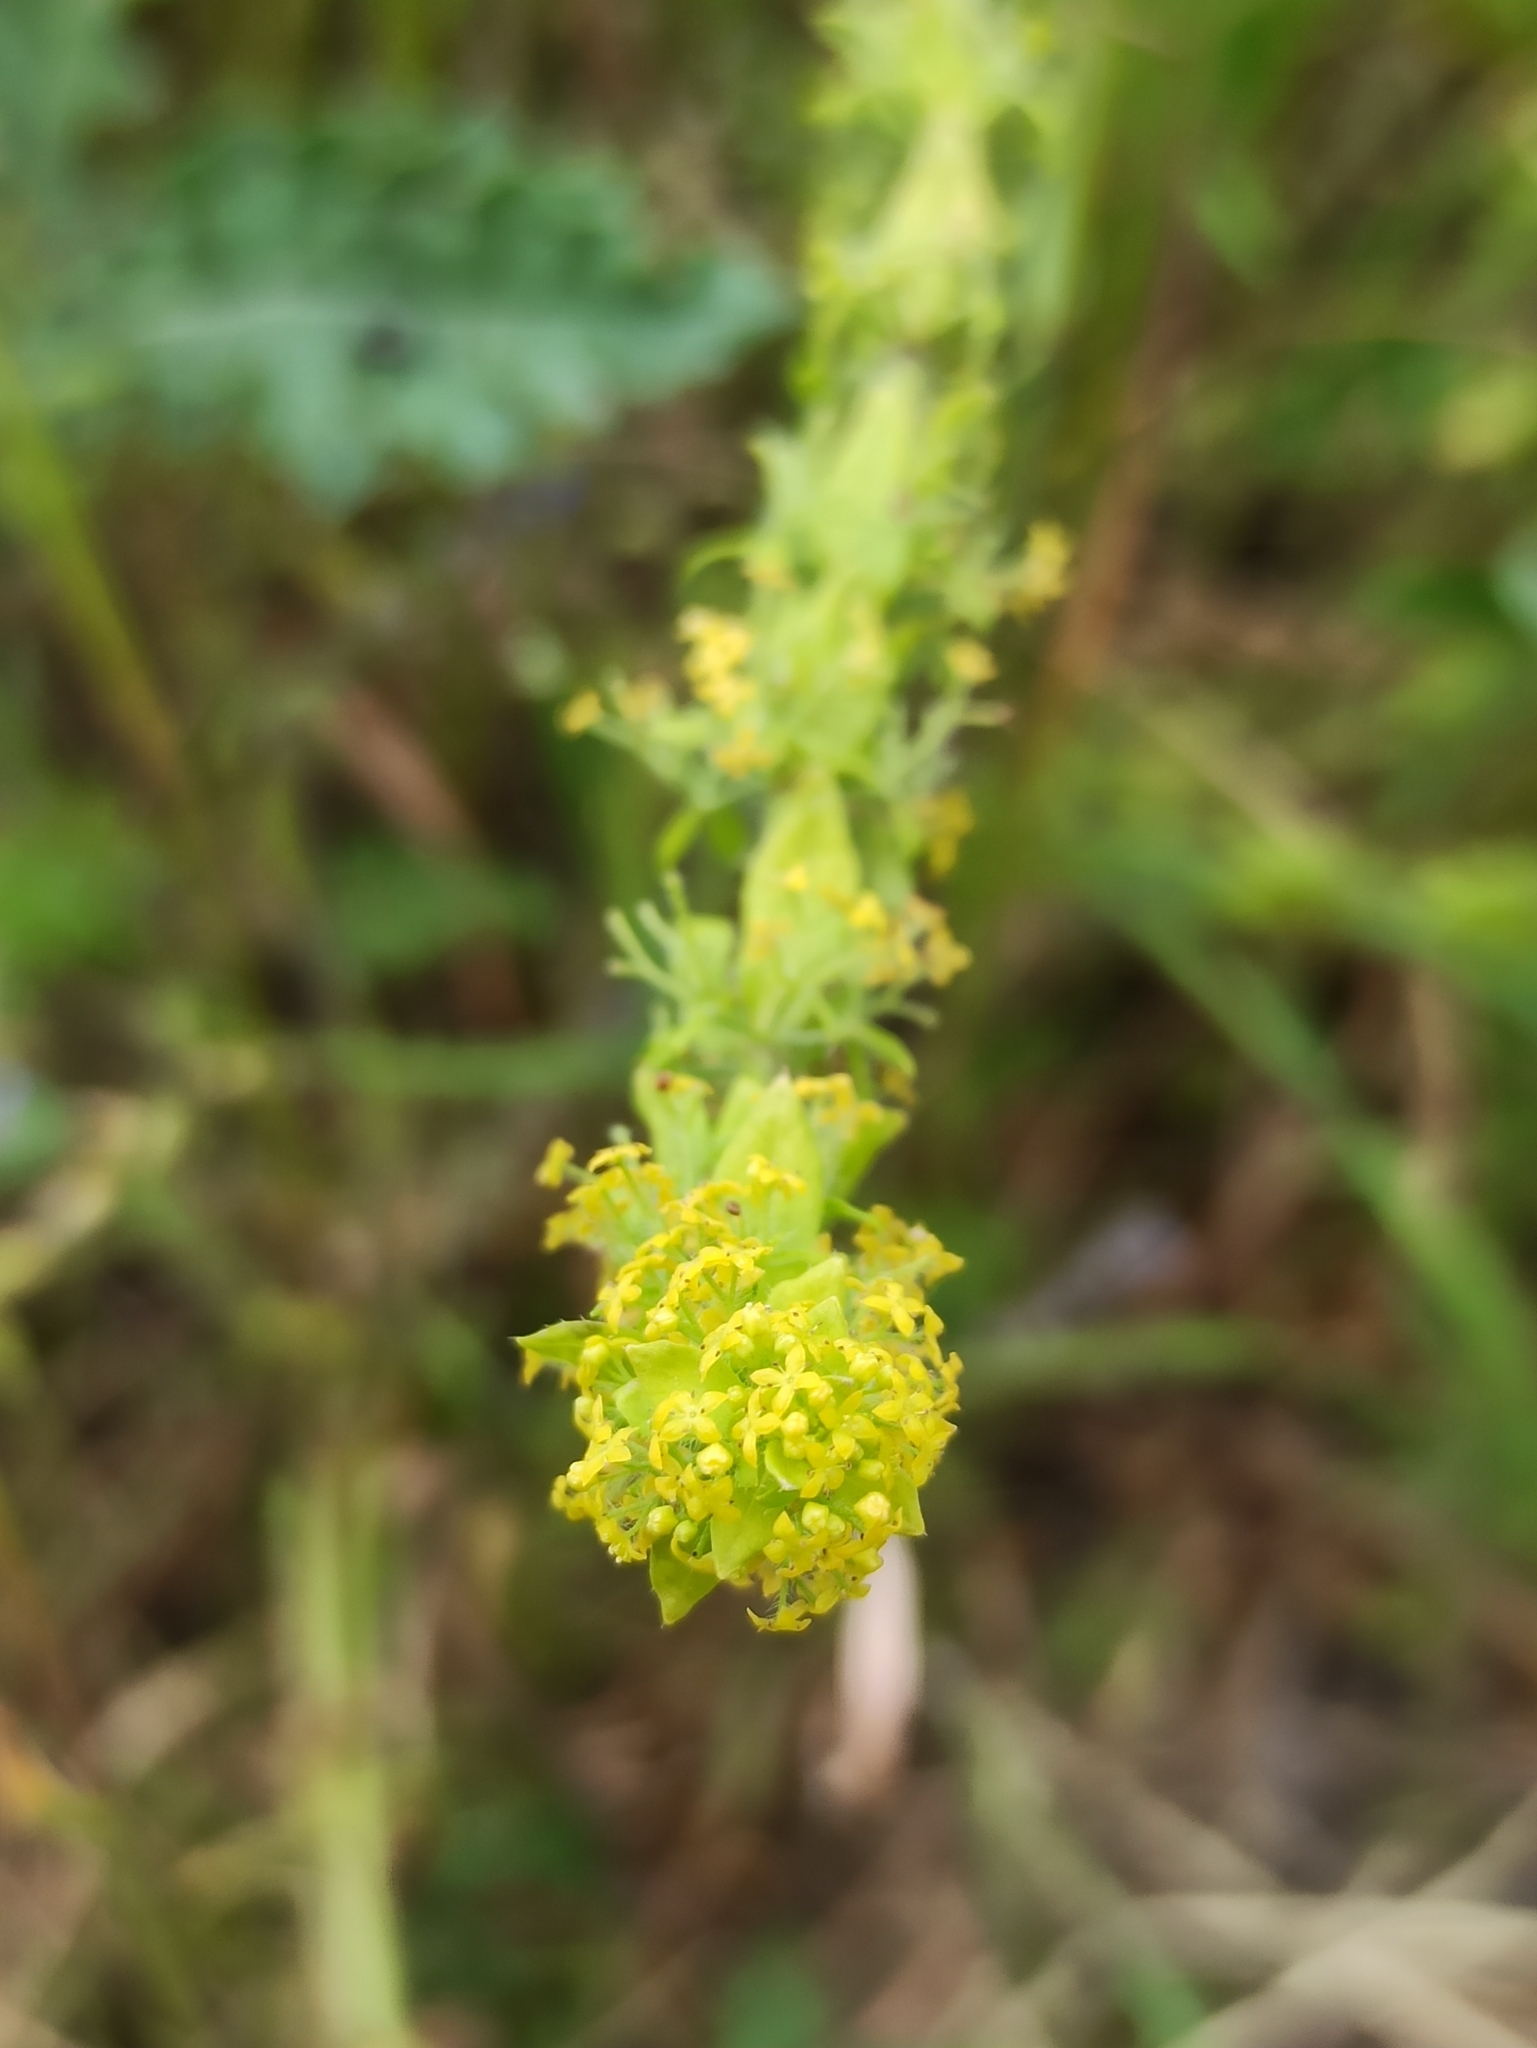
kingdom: Plantae
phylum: Tracheophyta
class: Magnoliopsida
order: Gentianales
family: Rubiaceae
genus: Cruciata
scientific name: Cruciata laevipes
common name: Crosswort
